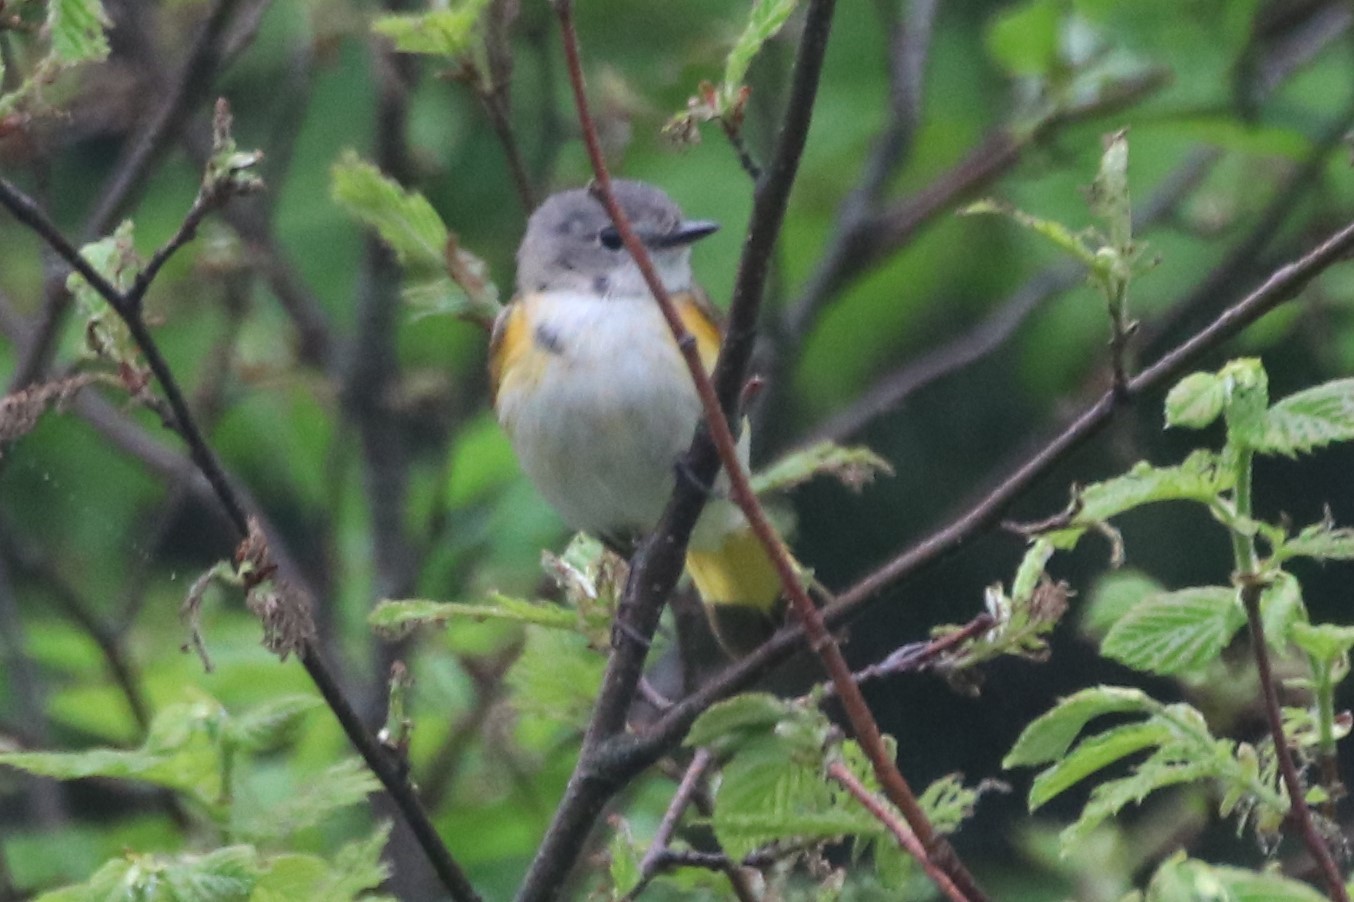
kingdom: Animalia
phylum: Chordata
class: Aves
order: Passeriformes
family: Parulidae
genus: Setophaga
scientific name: Setophaga ruticilla
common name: American redstart
